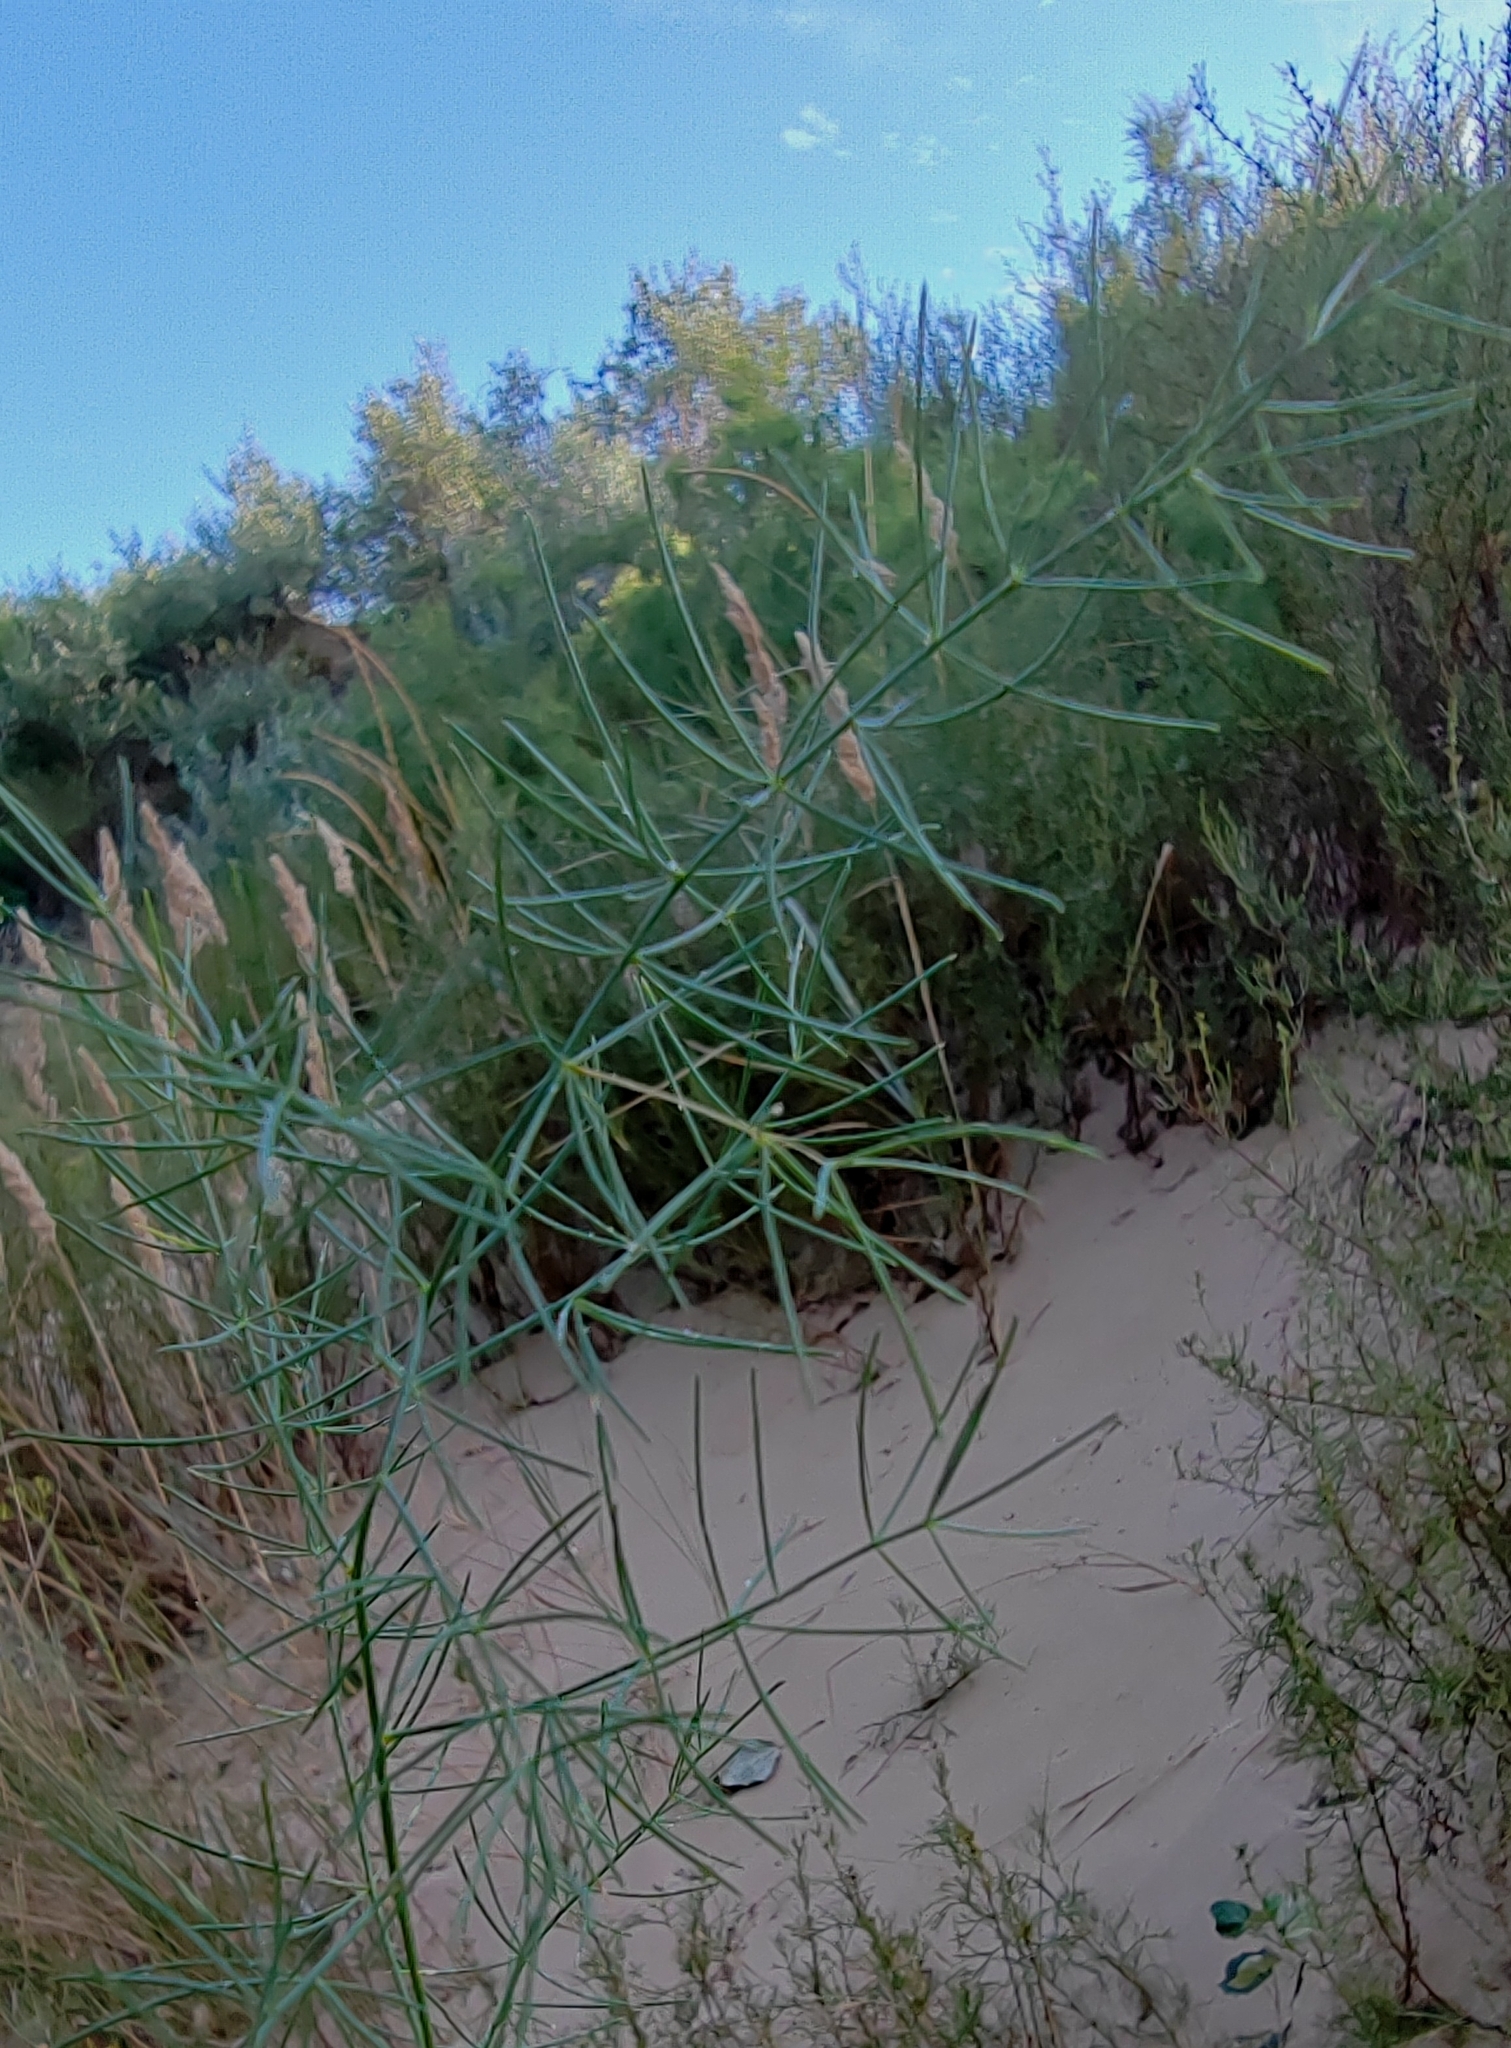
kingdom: Plantae
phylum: Tracheophyta
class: Liliopsida
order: Asparagales
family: Asparagaceae
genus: Asparagus
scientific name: Asparagus verticillatus
